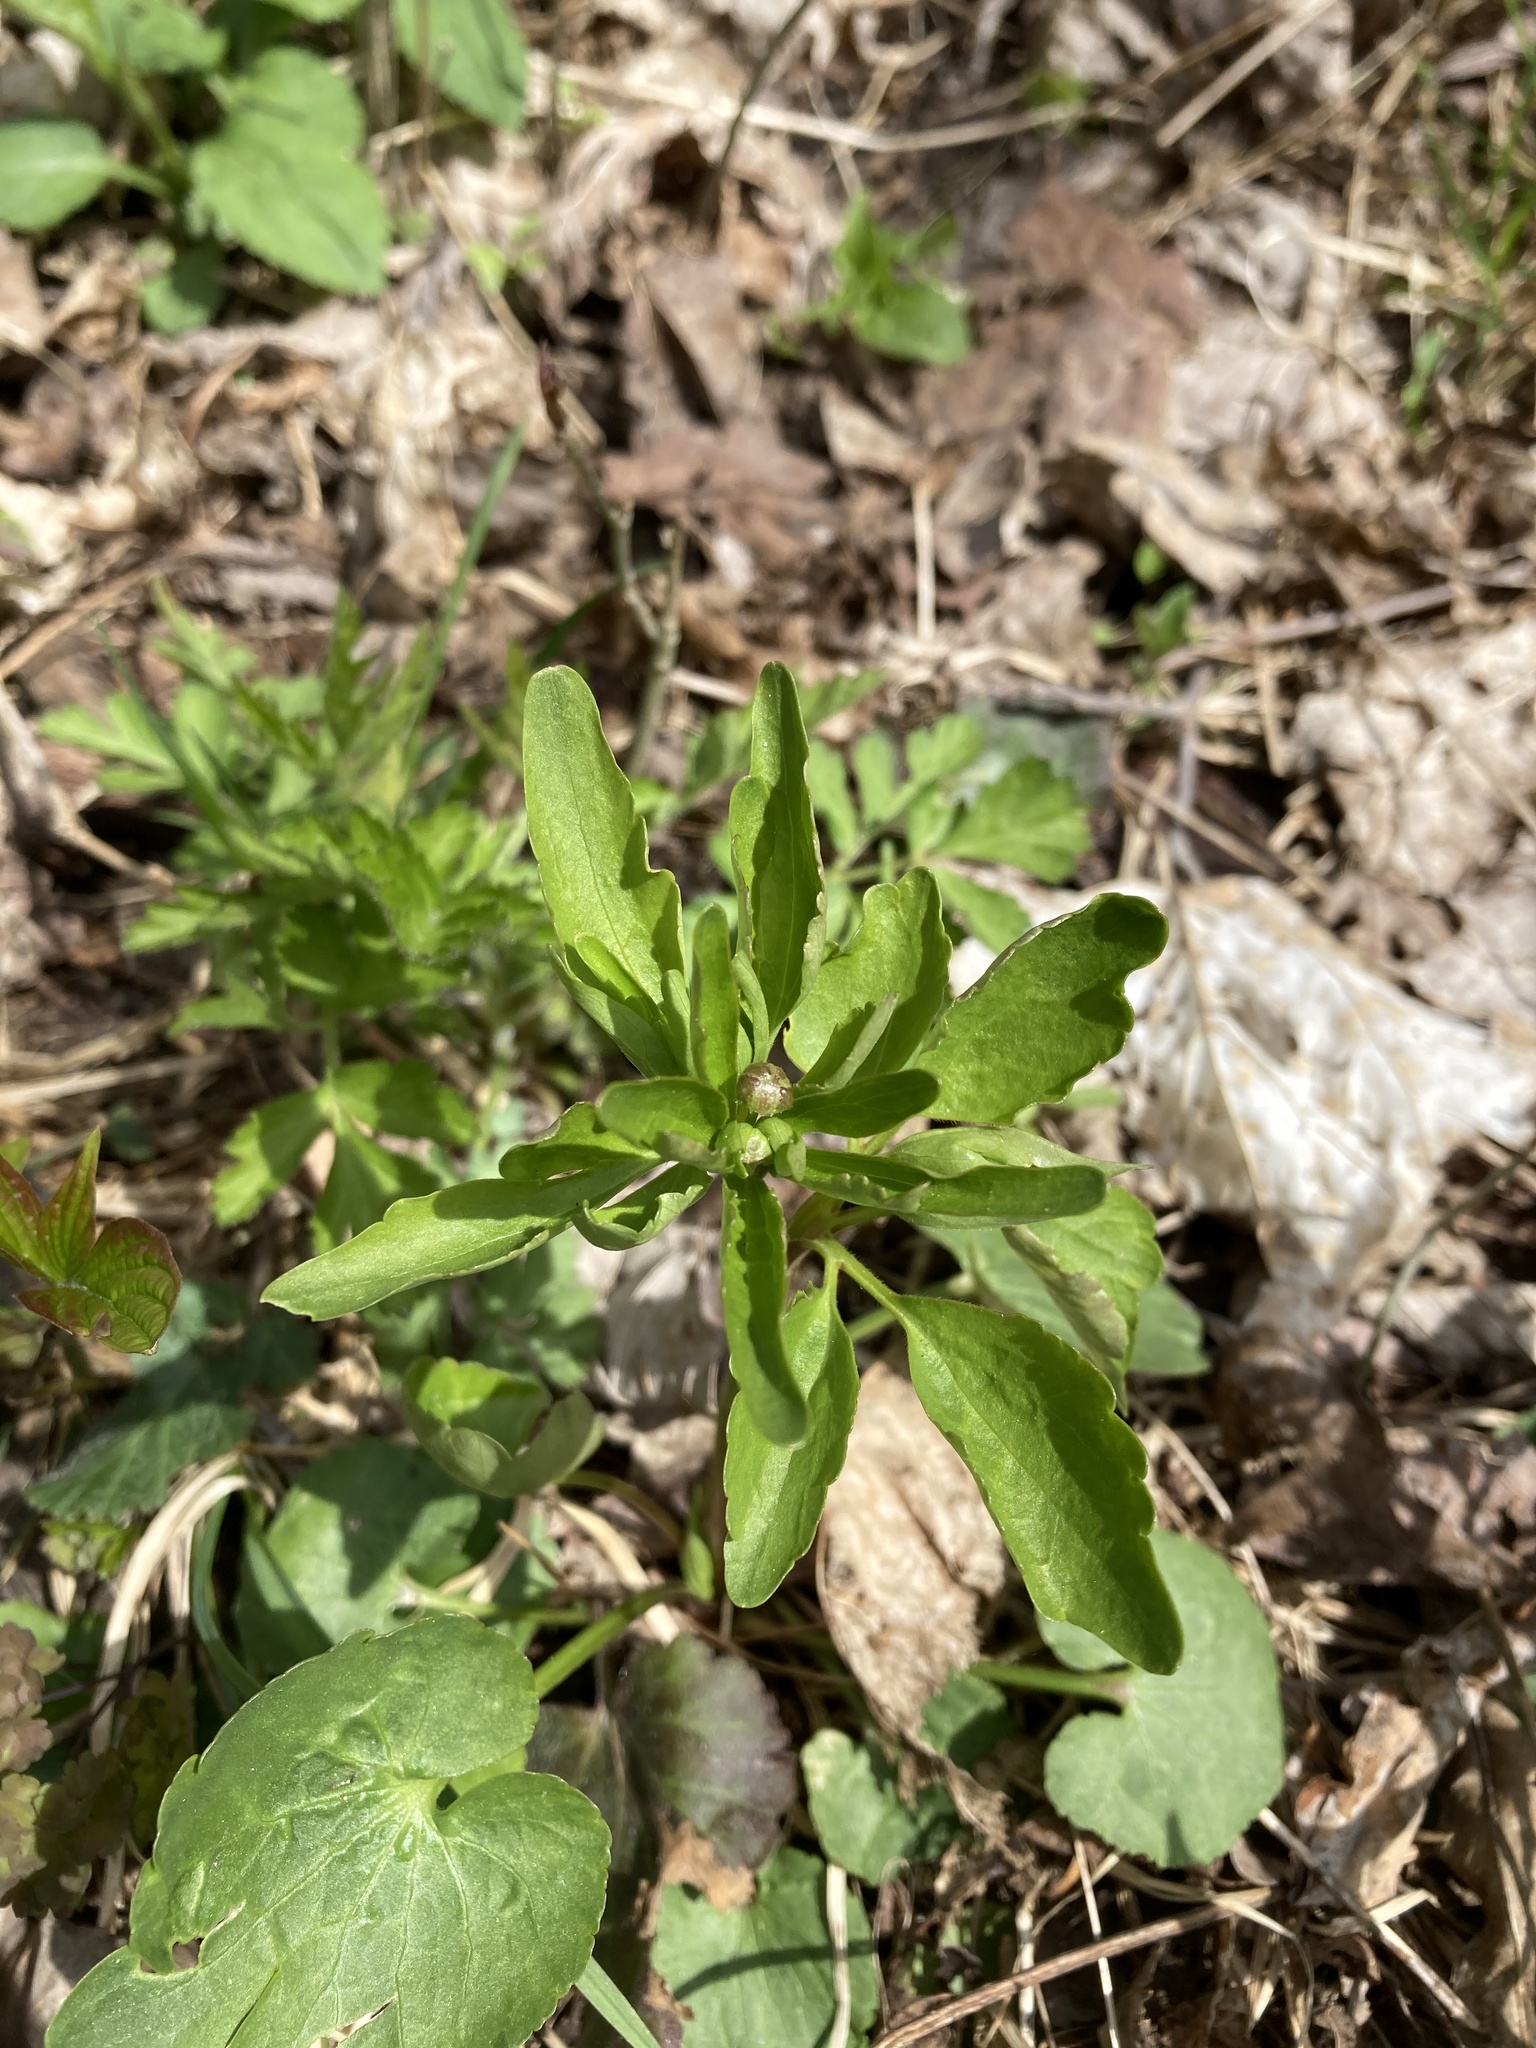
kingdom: Plantae
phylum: Tracheophyta
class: Magnoliopsida
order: Ranunculales
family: Ranunculaceae
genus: Ranunculus
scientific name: Ranunculus abortivus
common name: Early wood buttercup
